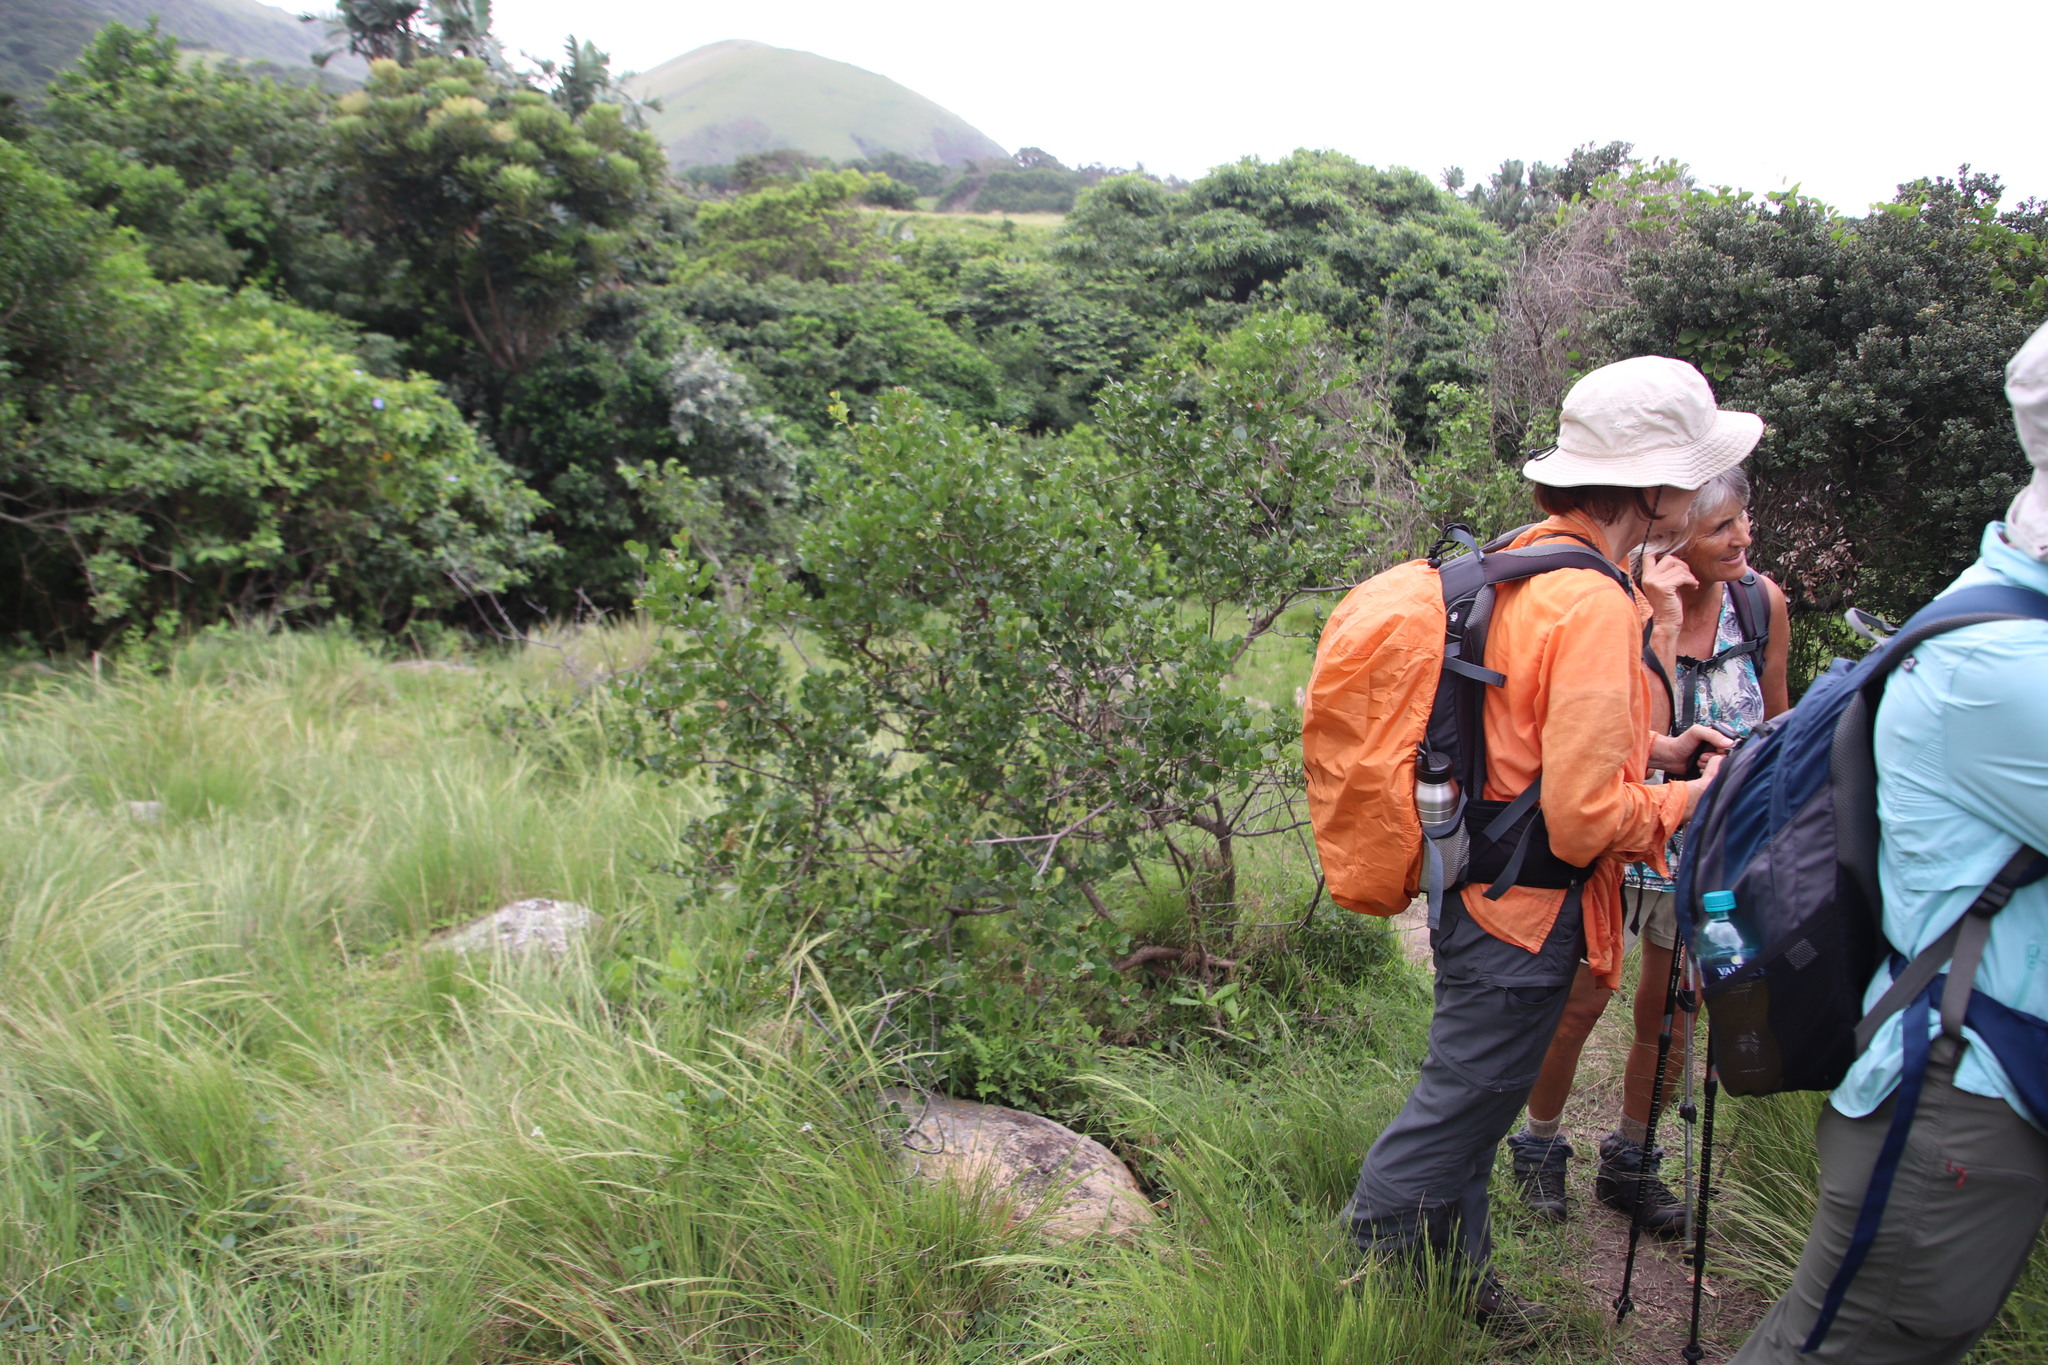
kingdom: Plantae
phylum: Tracheophyta
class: Magnoliopsida
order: Rosales
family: Rhamnaceae
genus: Scutia
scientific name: Scutia myrtina
